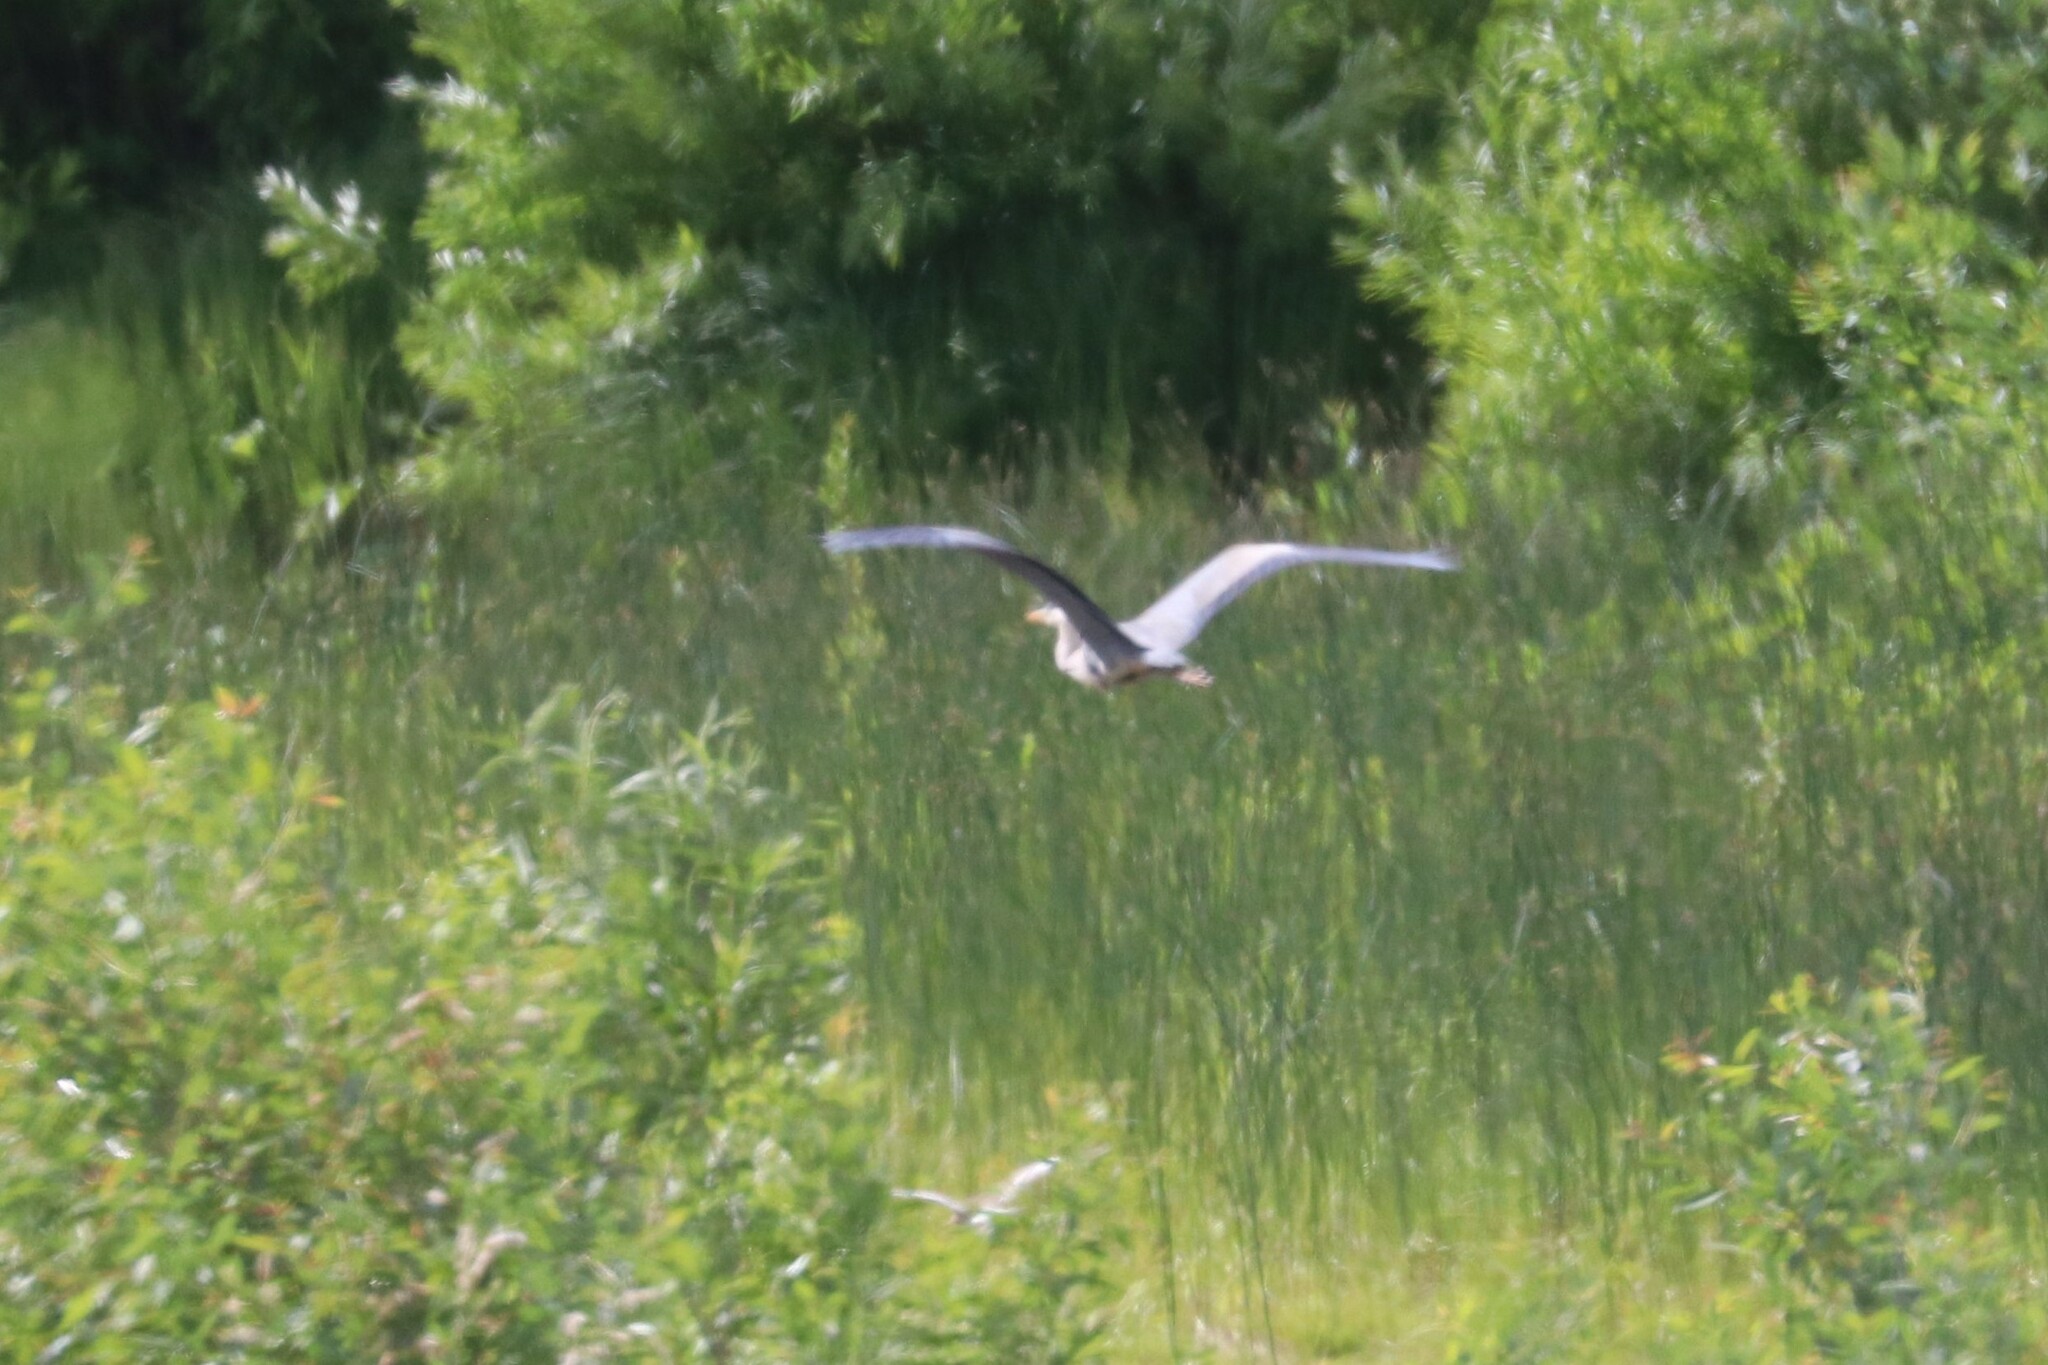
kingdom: Animalia
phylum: Chordata
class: Aves
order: Pelecaniformes
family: Ardeidae
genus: Ardea
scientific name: Ardea cinerea
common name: Grey heron
